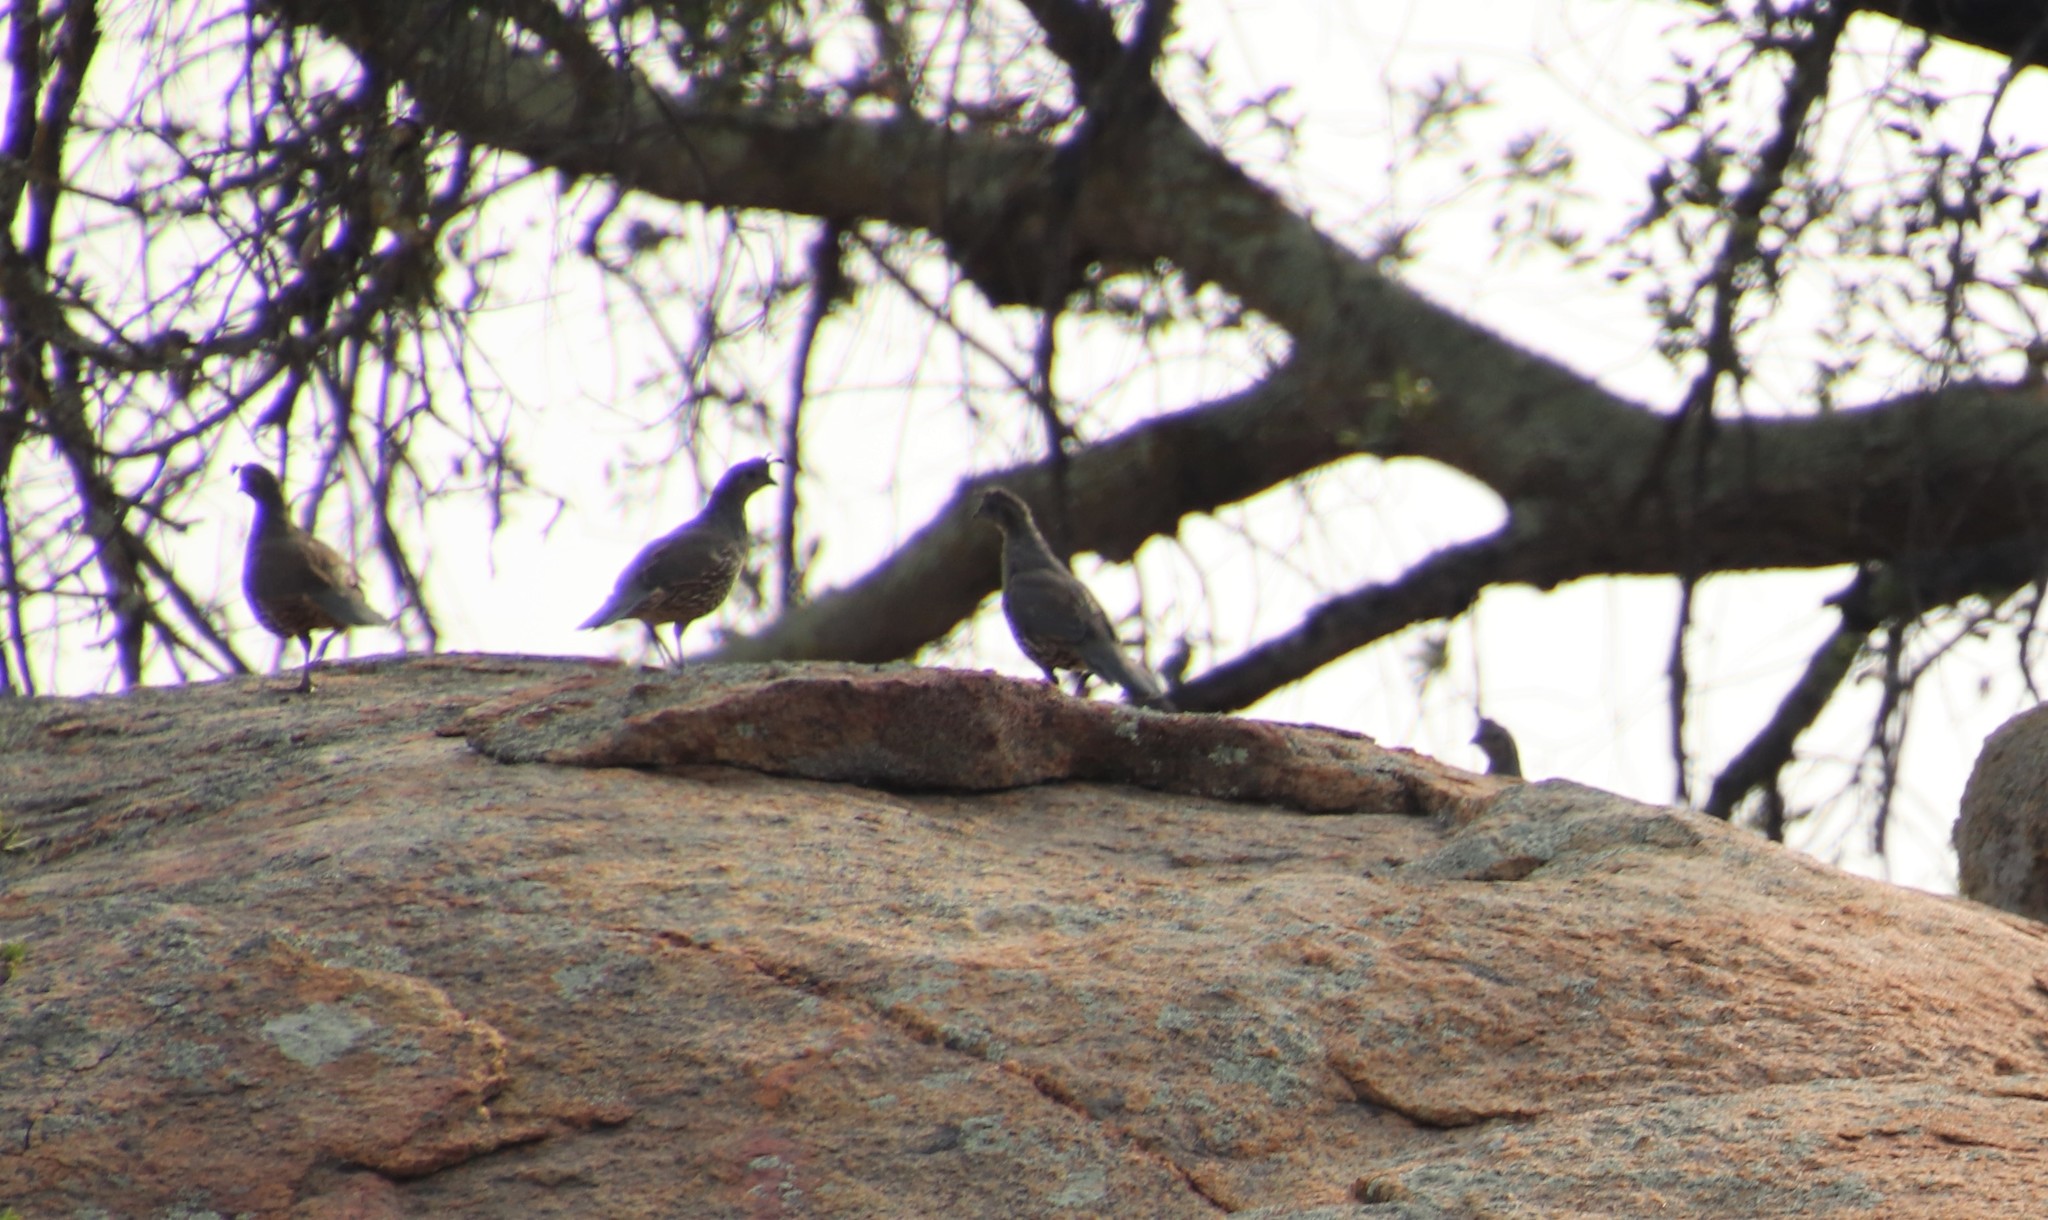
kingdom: Animalia
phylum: Chordata
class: Aves
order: Galliformes
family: Odontophoridae
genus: Callipepla
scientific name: Callipepla californica
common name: California quail
